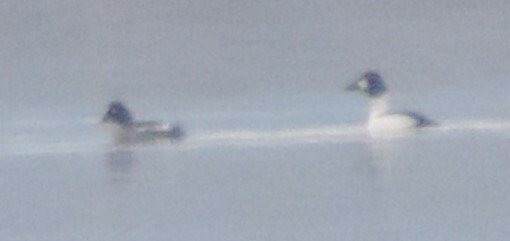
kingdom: Animalia
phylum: Chordata
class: Aves
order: Anseriformes
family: Anatidae
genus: Bucephala
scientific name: Bucephala clangula
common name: Common goldeneye
